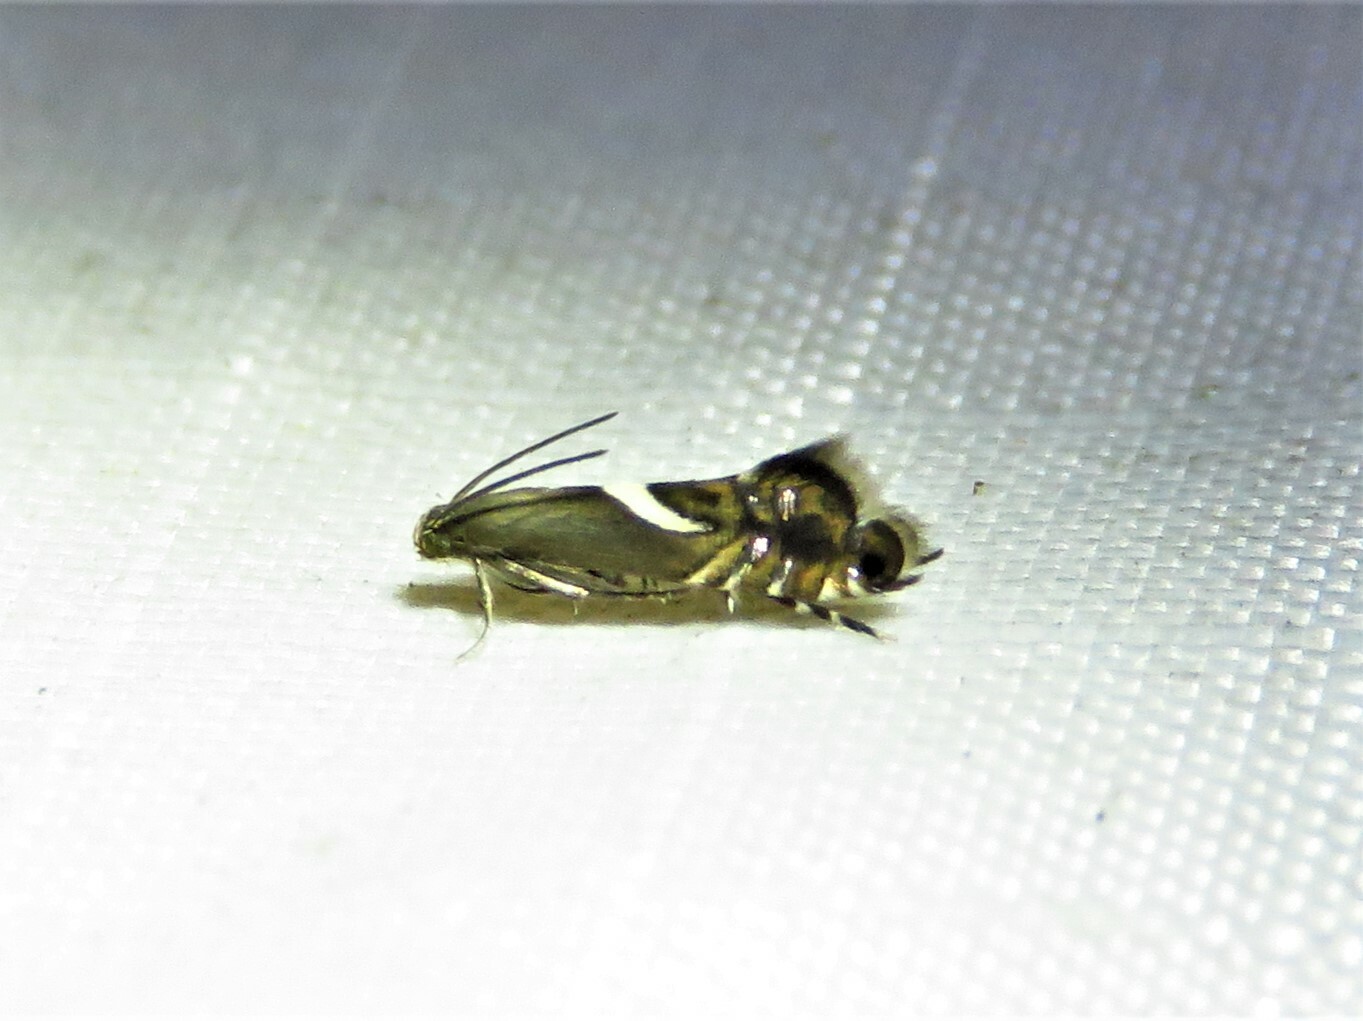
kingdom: Animalia
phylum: Arthropoda
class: Insecta
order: Lepidoptera
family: Glyphipterigidae
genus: Glyphipterix
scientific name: Glyphipterix Diploschizia impigritella
